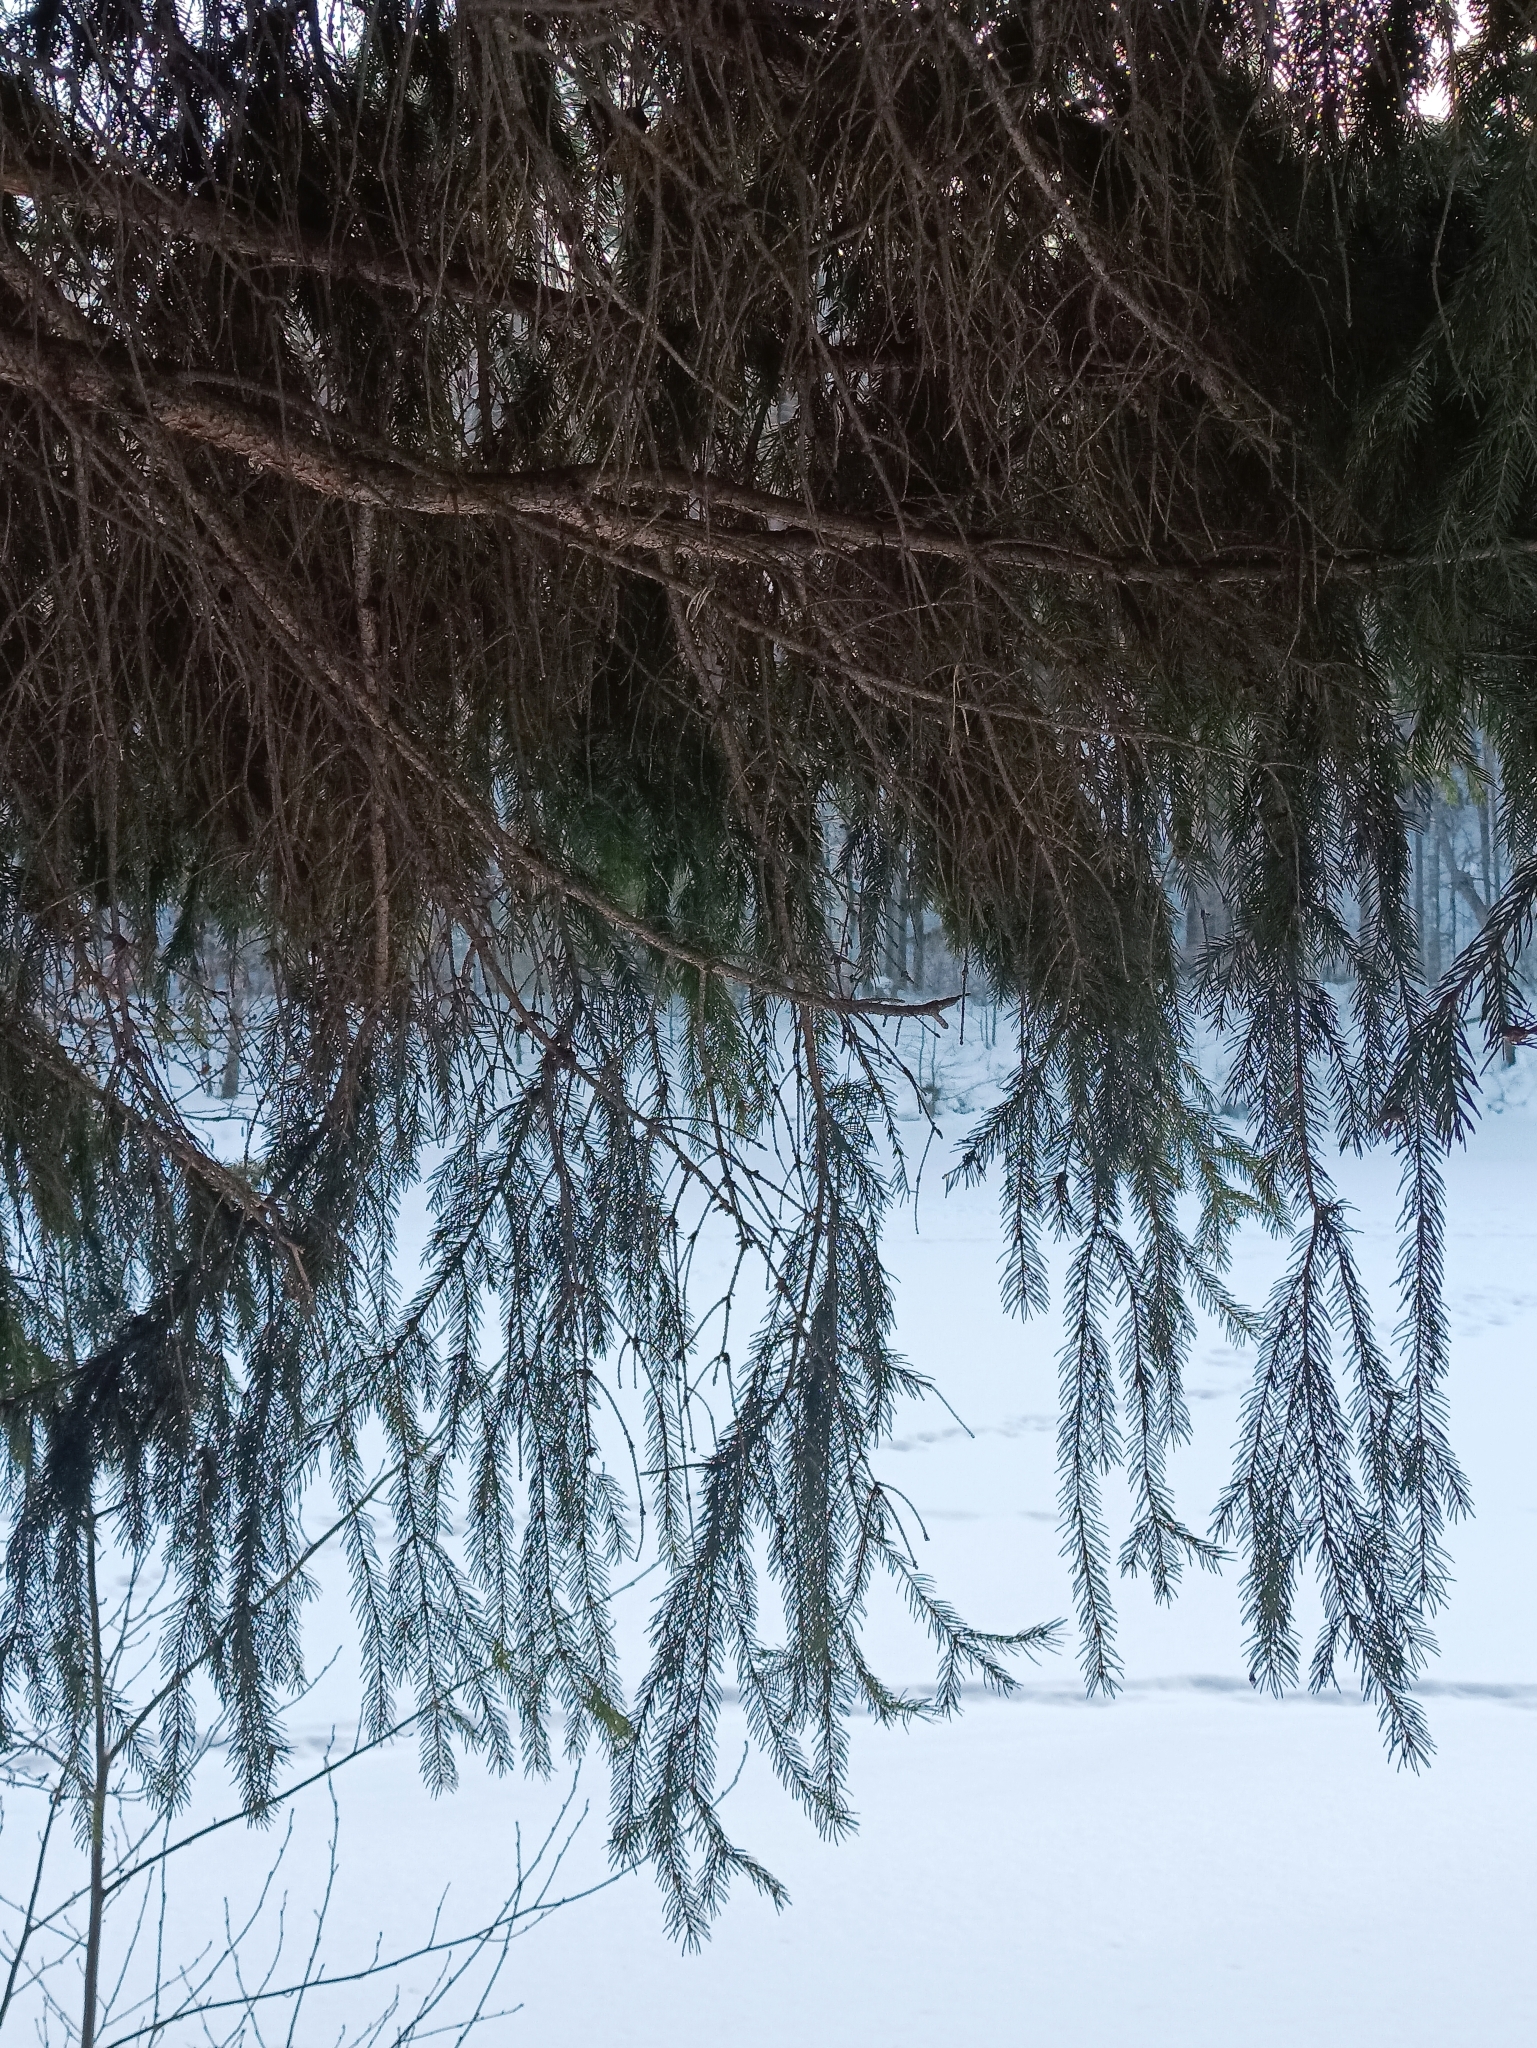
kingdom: Plantae
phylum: Tracheophyta
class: Pinopsida
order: Pinales
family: Pinaceae
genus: Picea
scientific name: Picea abies
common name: Norway spruce
